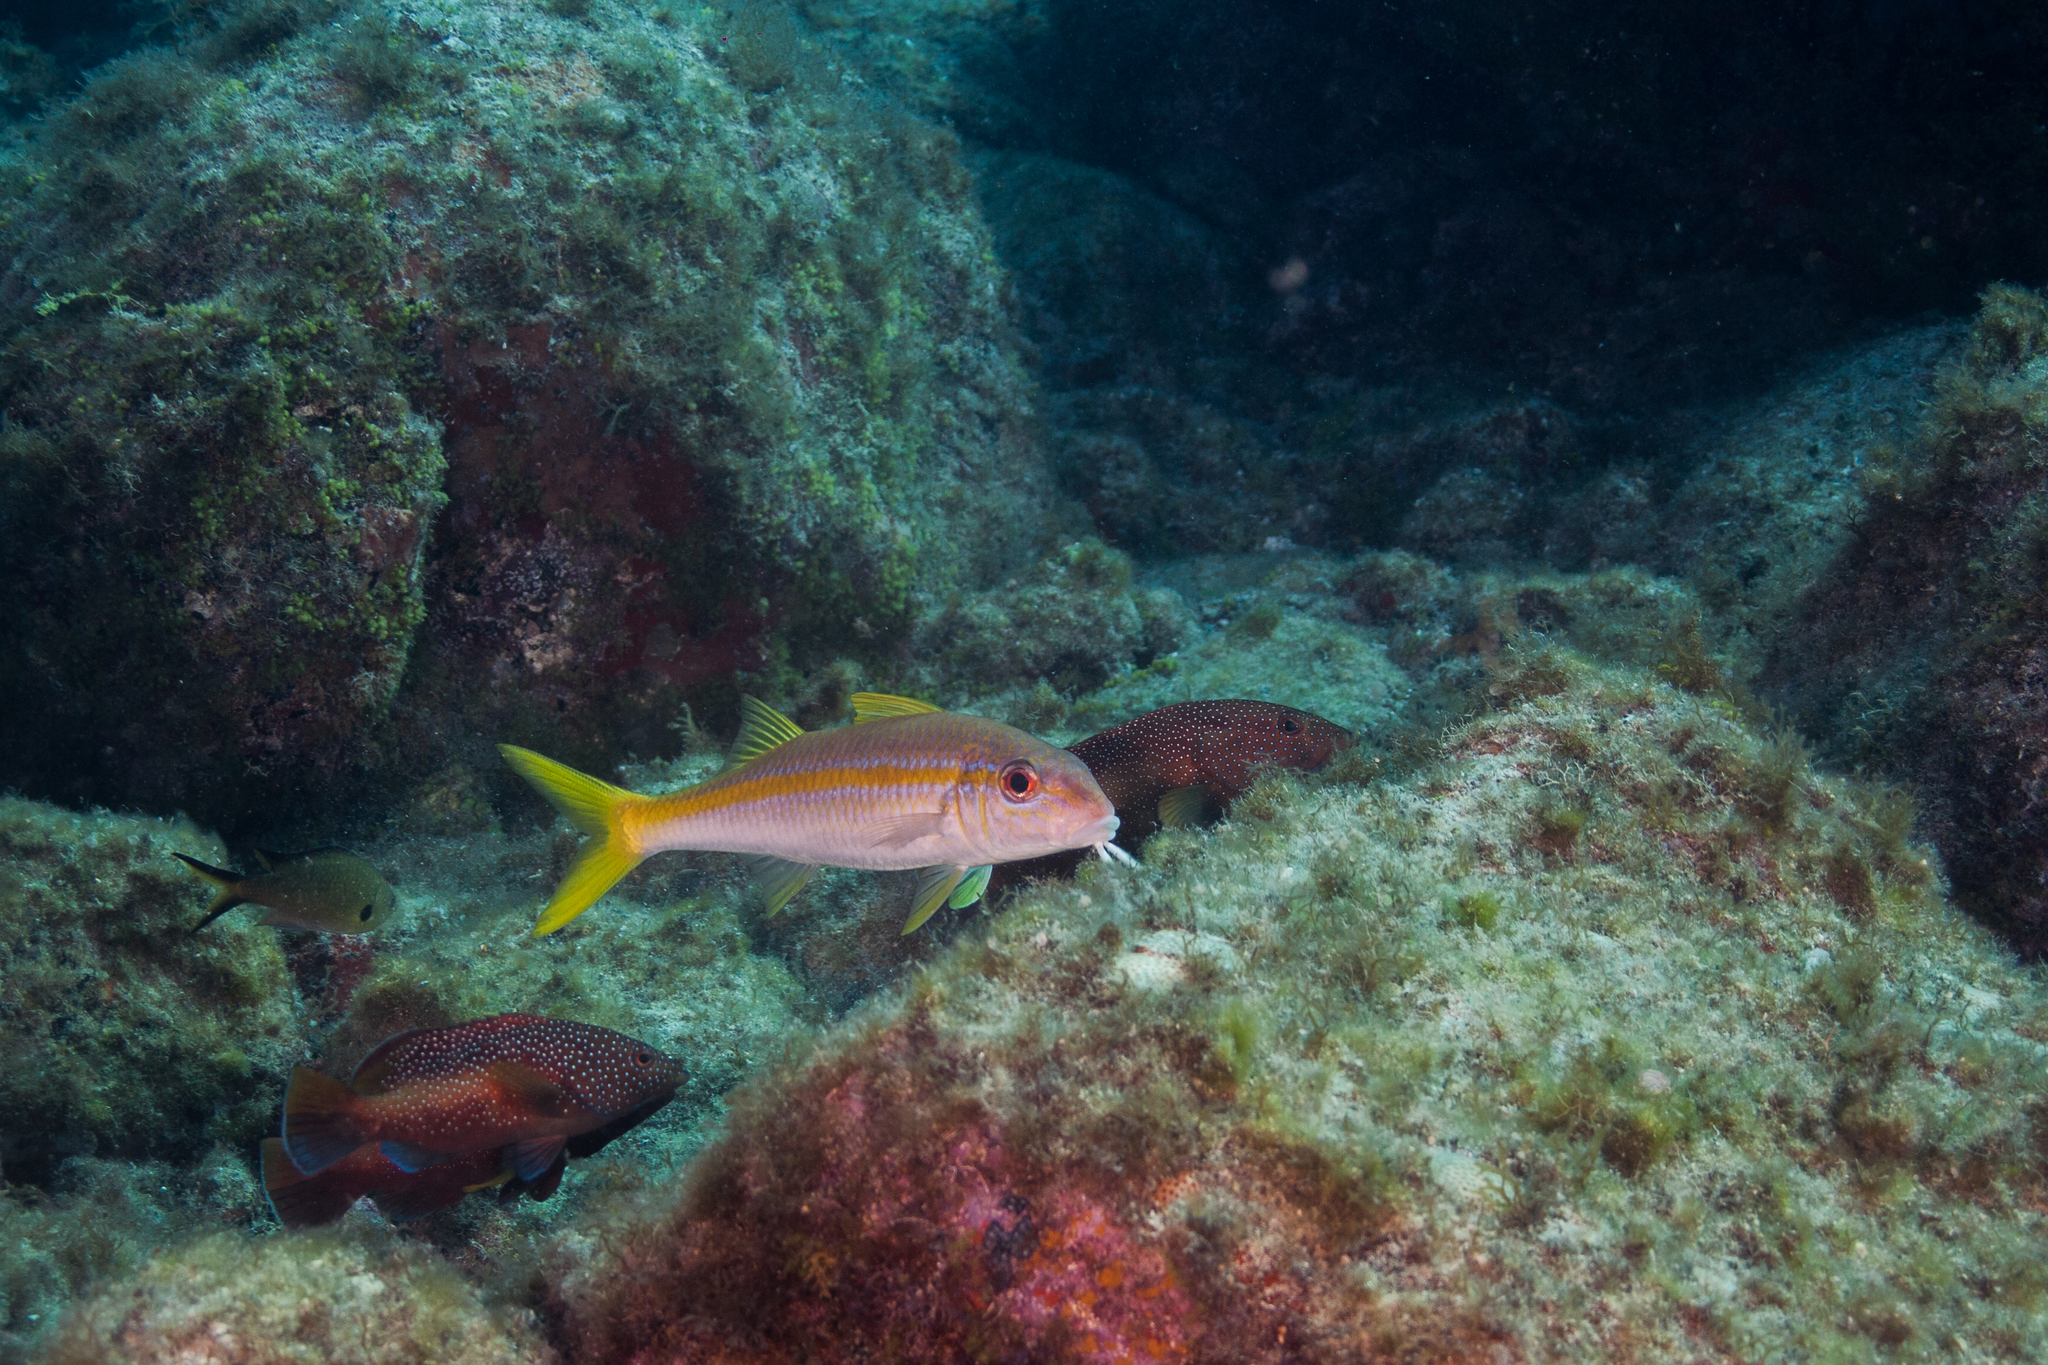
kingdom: Animalia
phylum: Chordata
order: Perciformes
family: Mullidae
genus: Mulloidichthys
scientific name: Mulloidichthys martinicus
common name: Yellow goatfish
